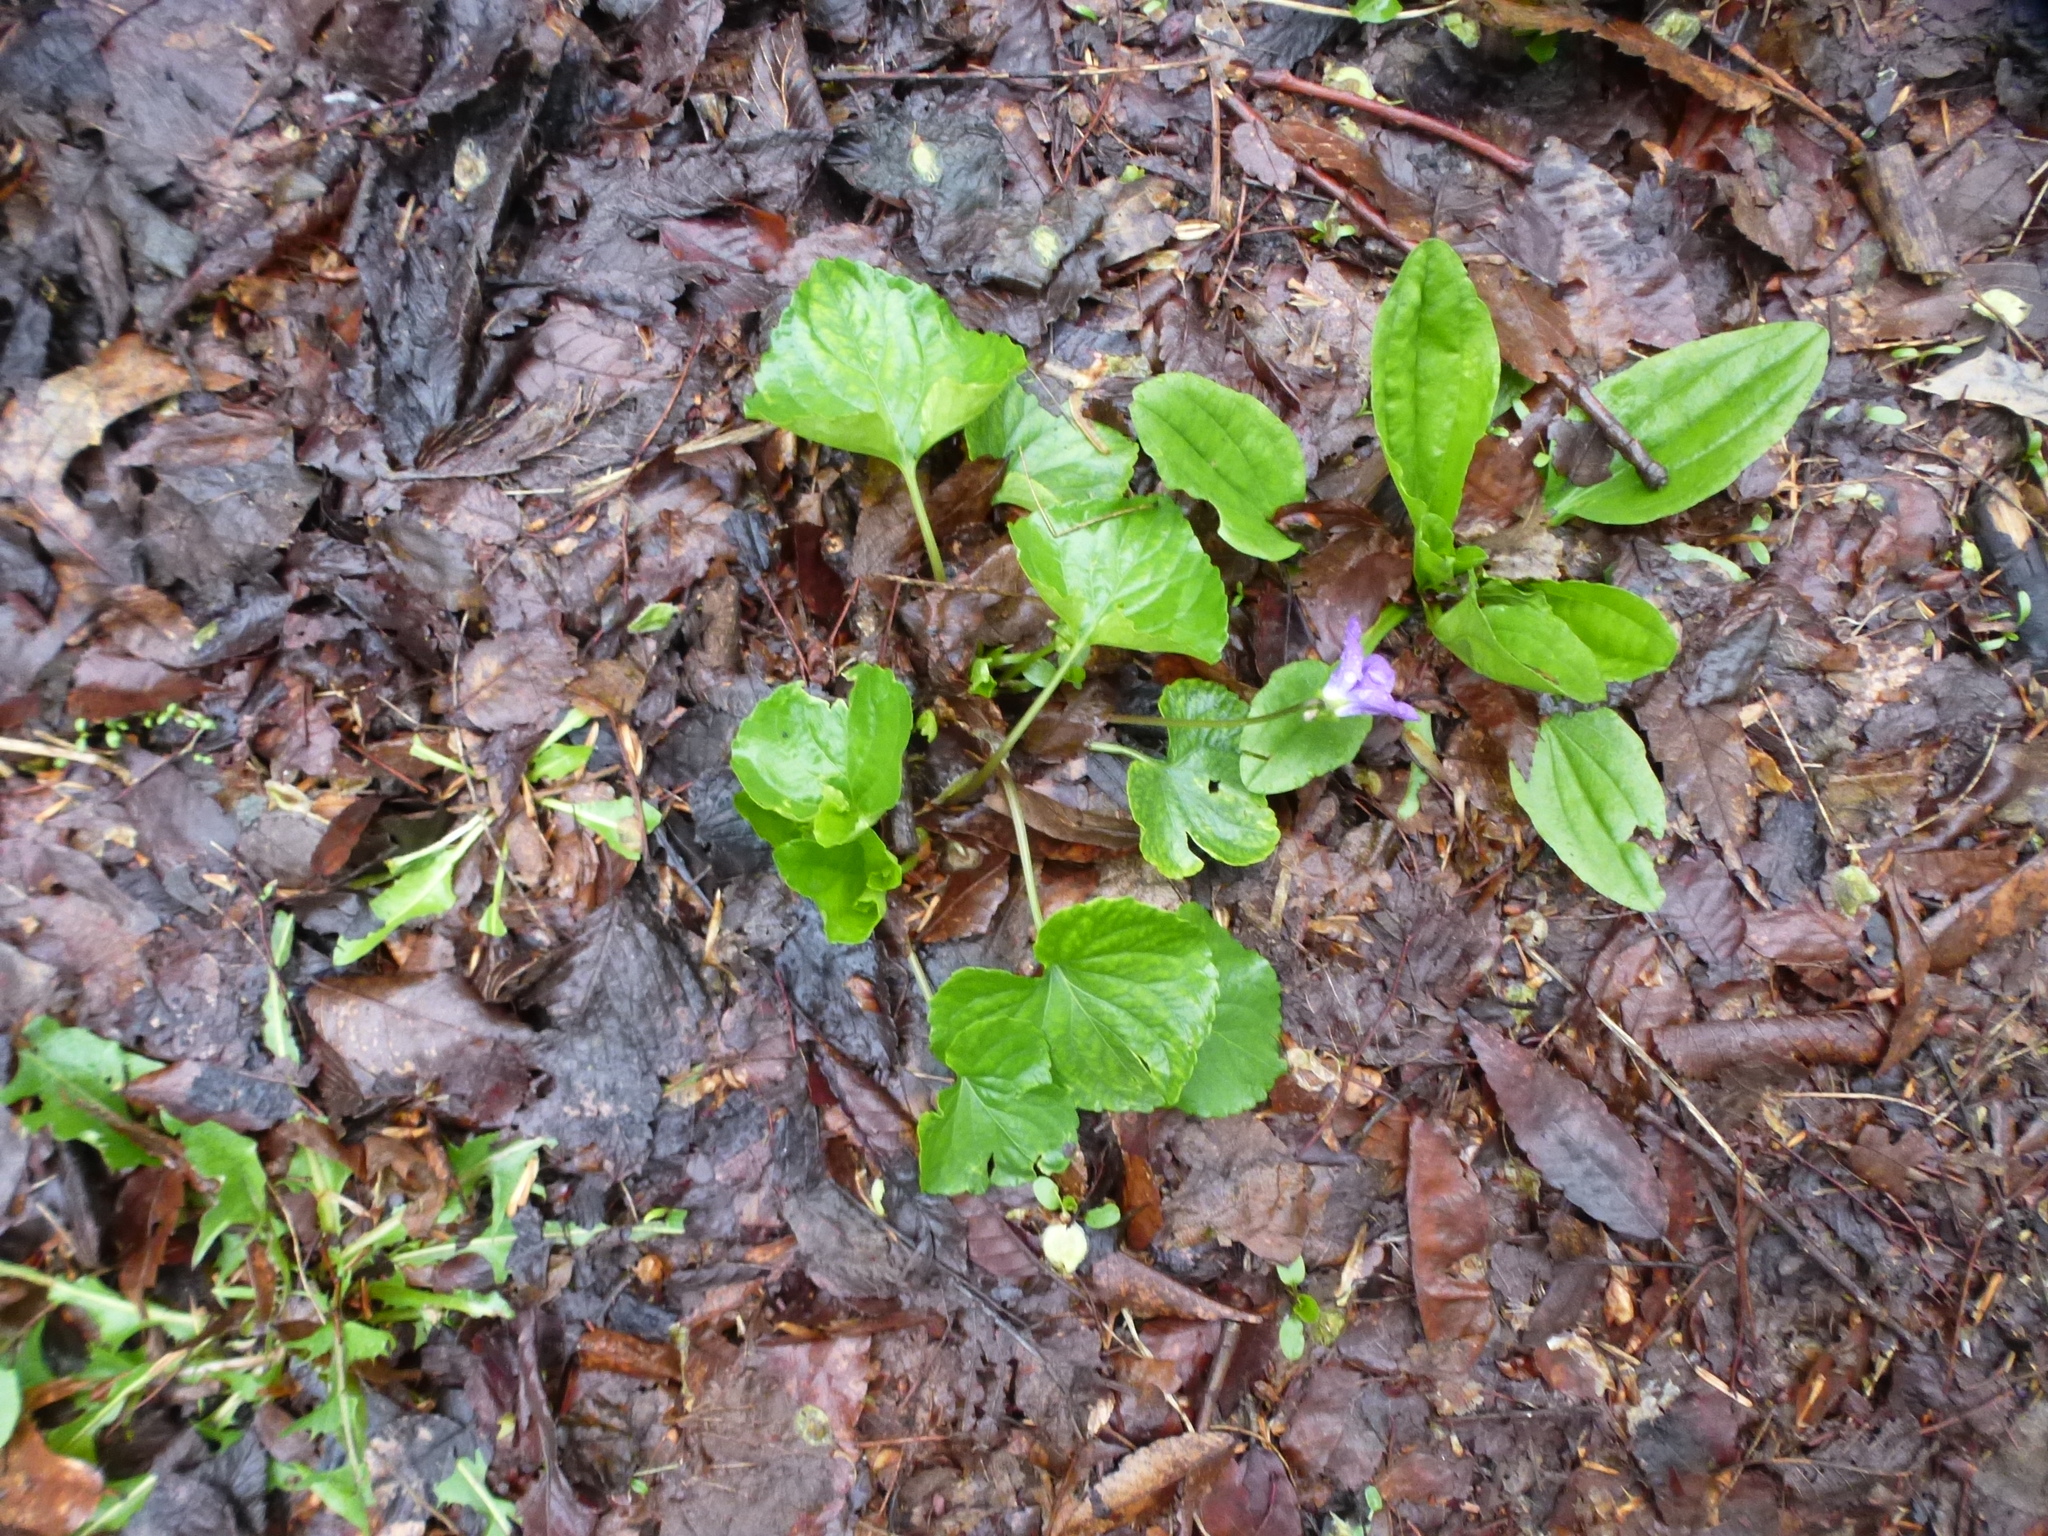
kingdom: Plantae
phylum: Tracheophyta
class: Magnoliopsida
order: Malpighiales
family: Violaceae
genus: Viola
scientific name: Viola sororia
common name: Dooryard violet
